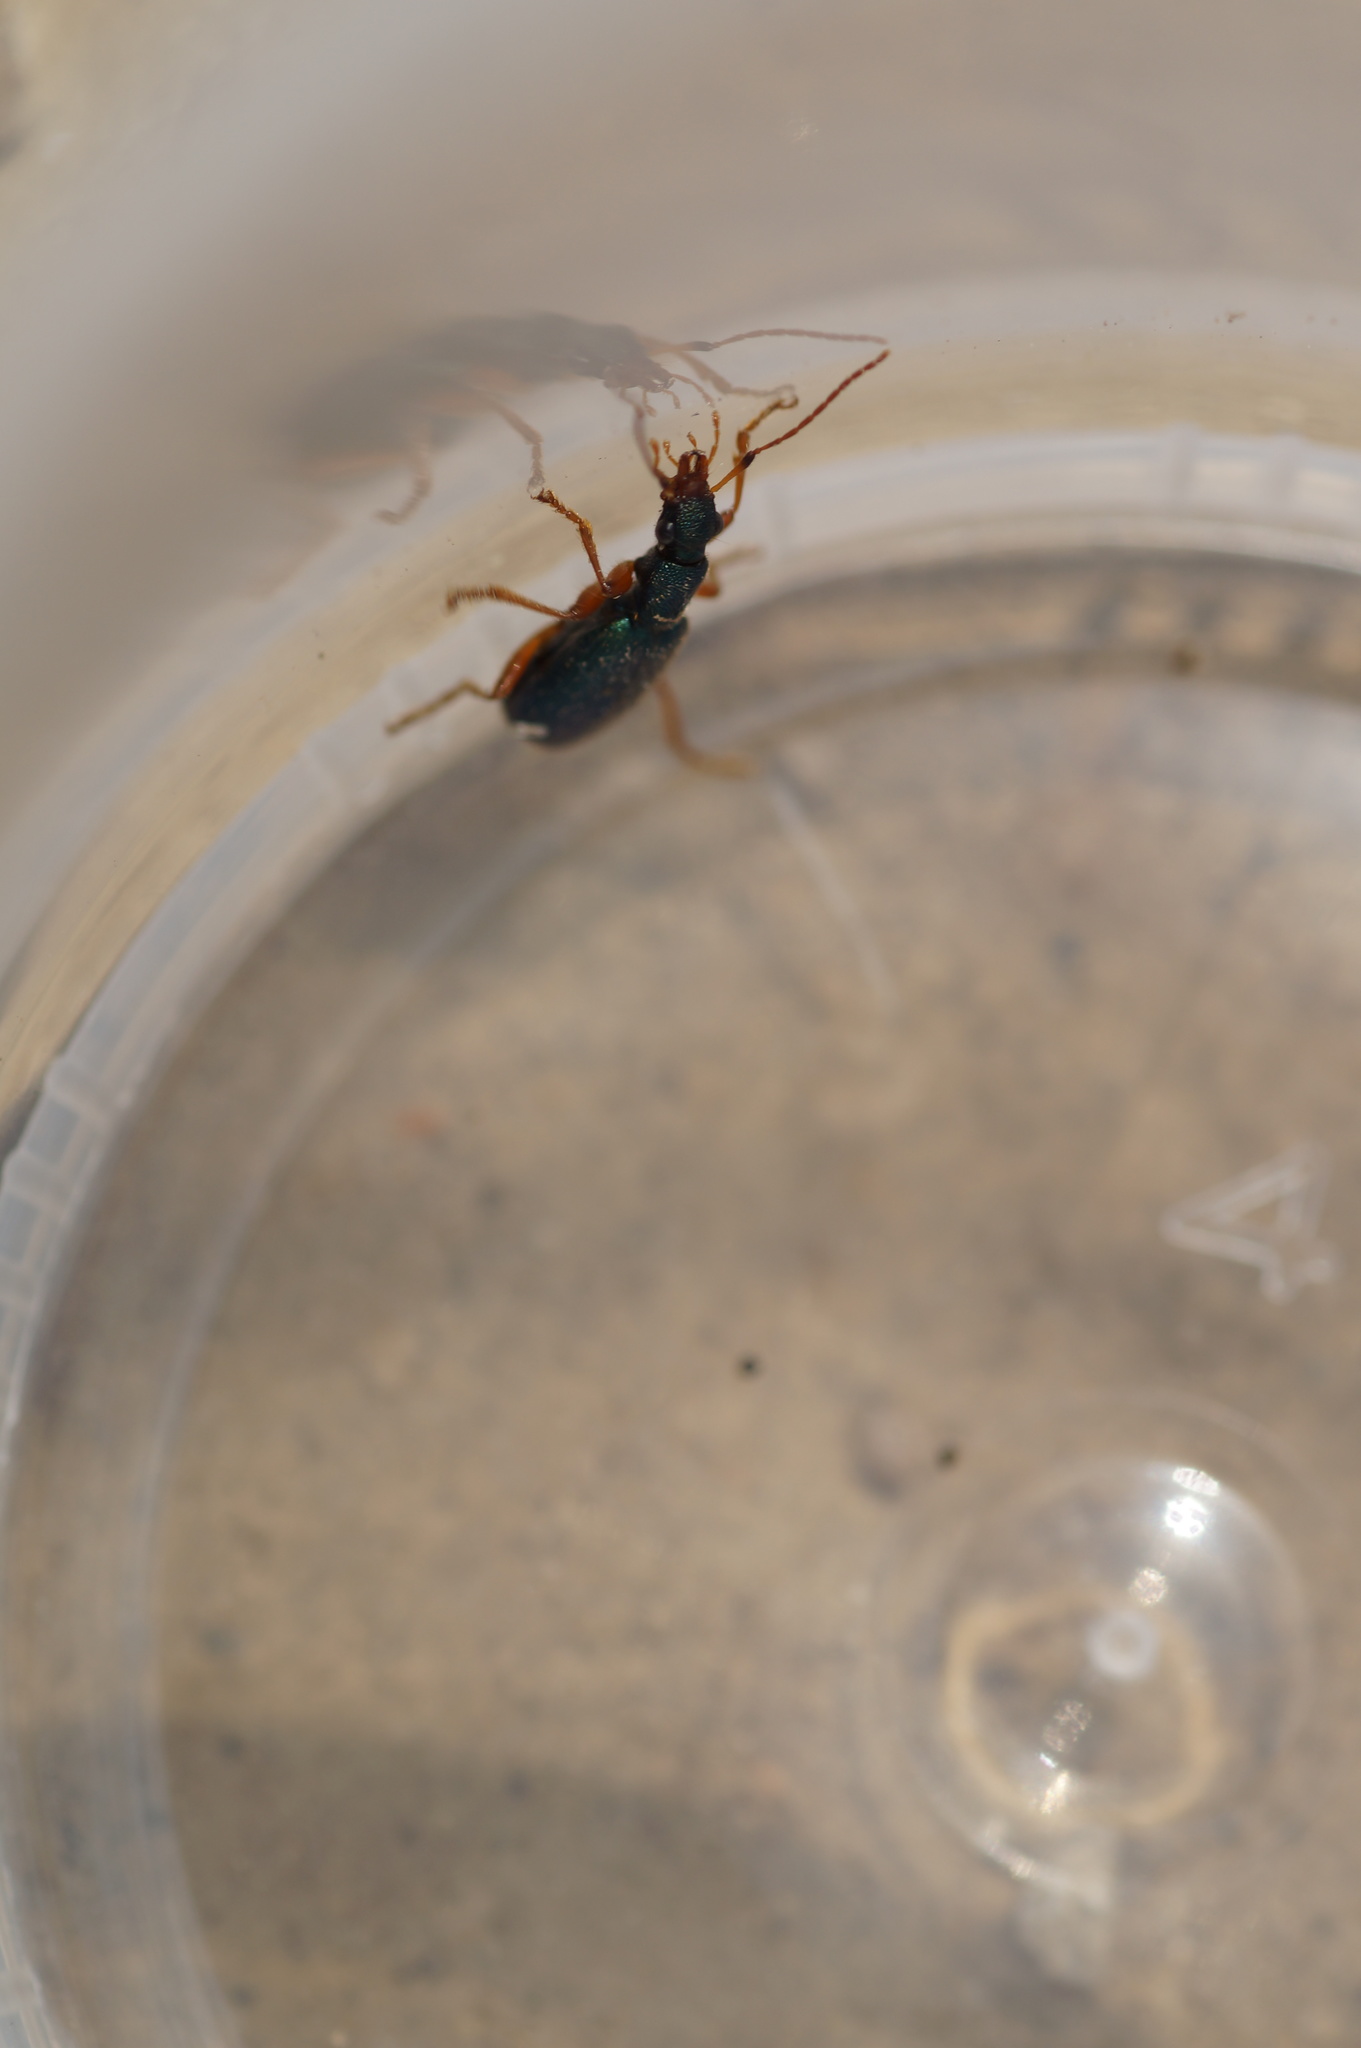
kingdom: Animalia
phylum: Arthropoda
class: Insecta
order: Coleoptera
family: Carabidae
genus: Drypta
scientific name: Drypta dentata
